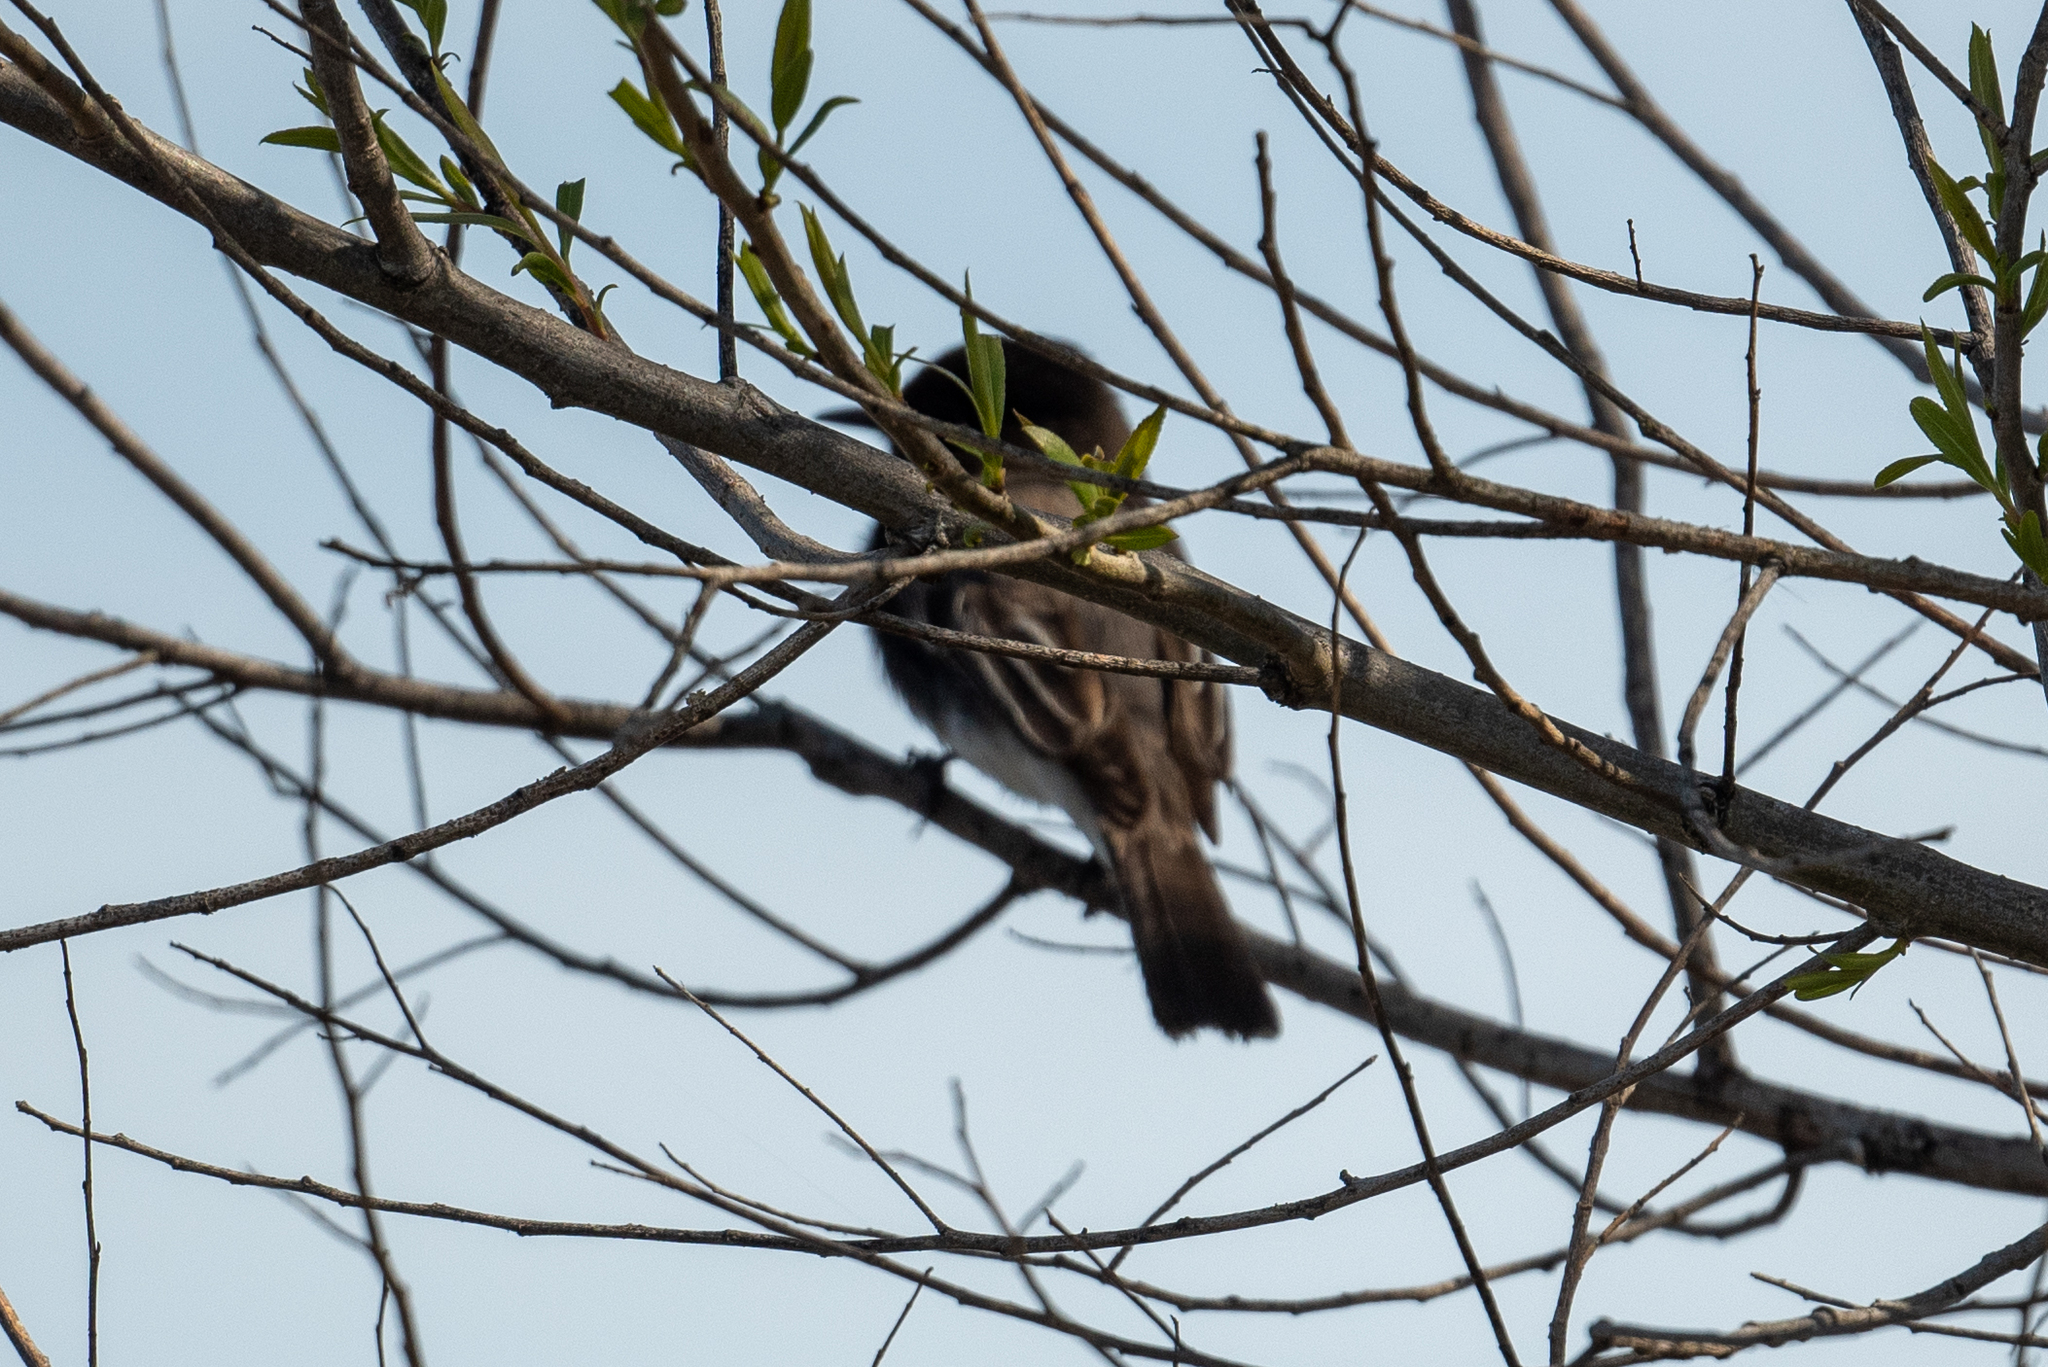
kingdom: Animalia
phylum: Chordata
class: Aves
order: Passeriformes
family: Tyrannidae
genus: Sayornis
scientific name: Sayornis nigricans
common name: Black phoebe
